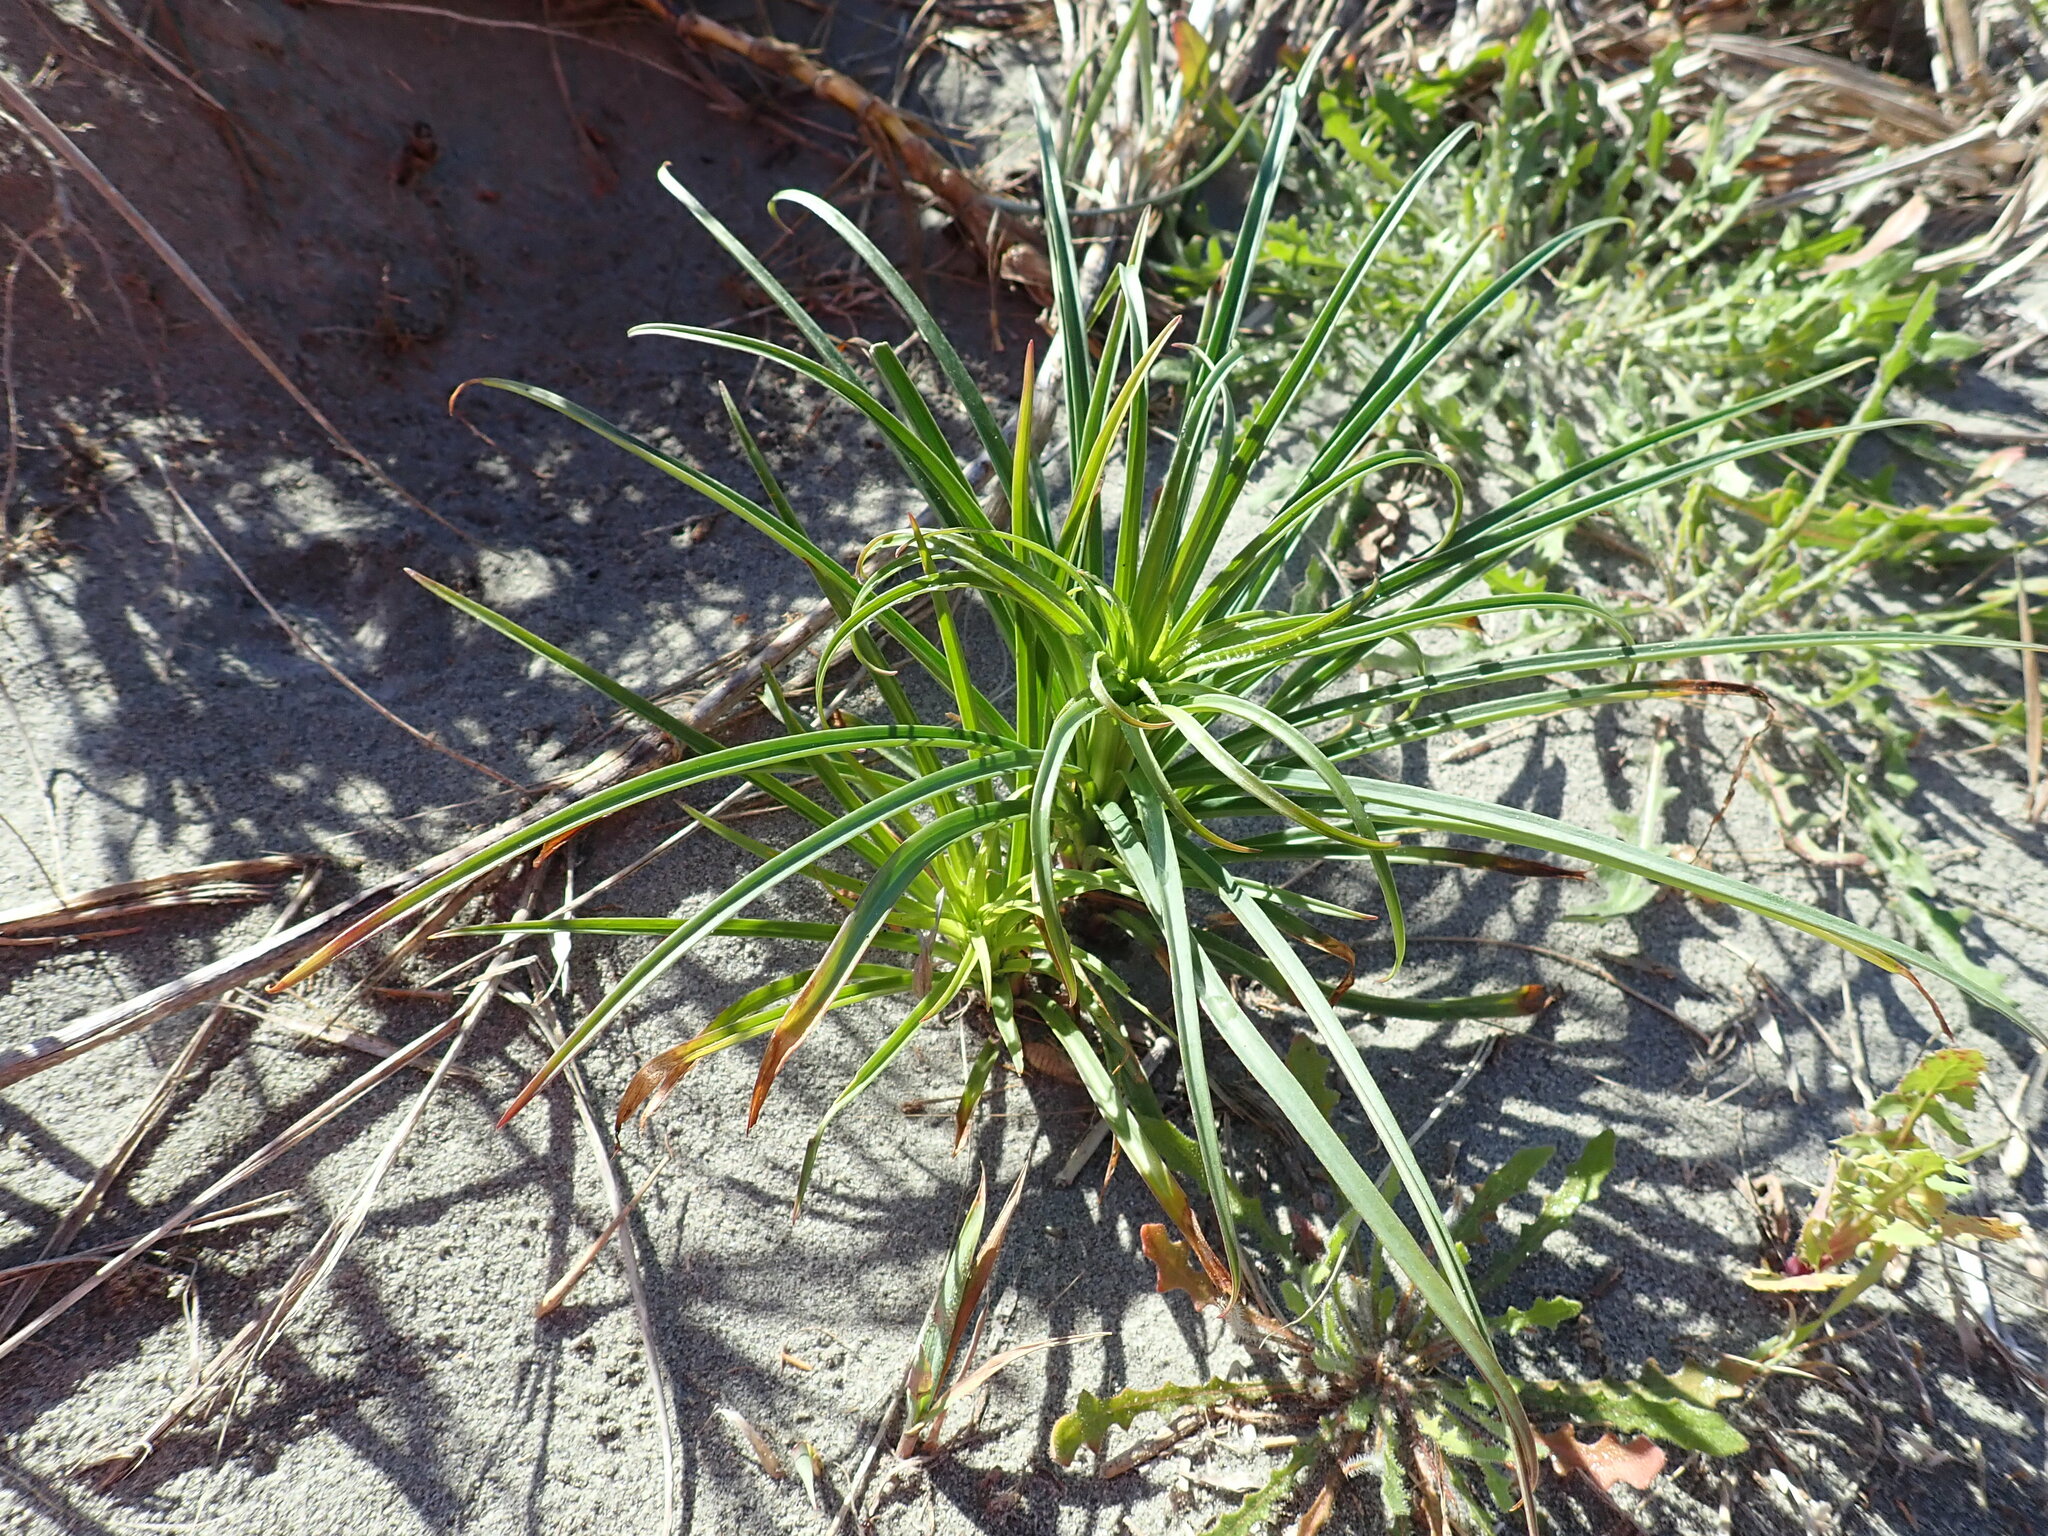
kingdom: Plantae
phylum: Tracheophyta
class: Liliopsida
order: Liliales
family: Liliaceae
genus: Lilium
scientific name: Lilium formosanum
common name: Formosa lily
